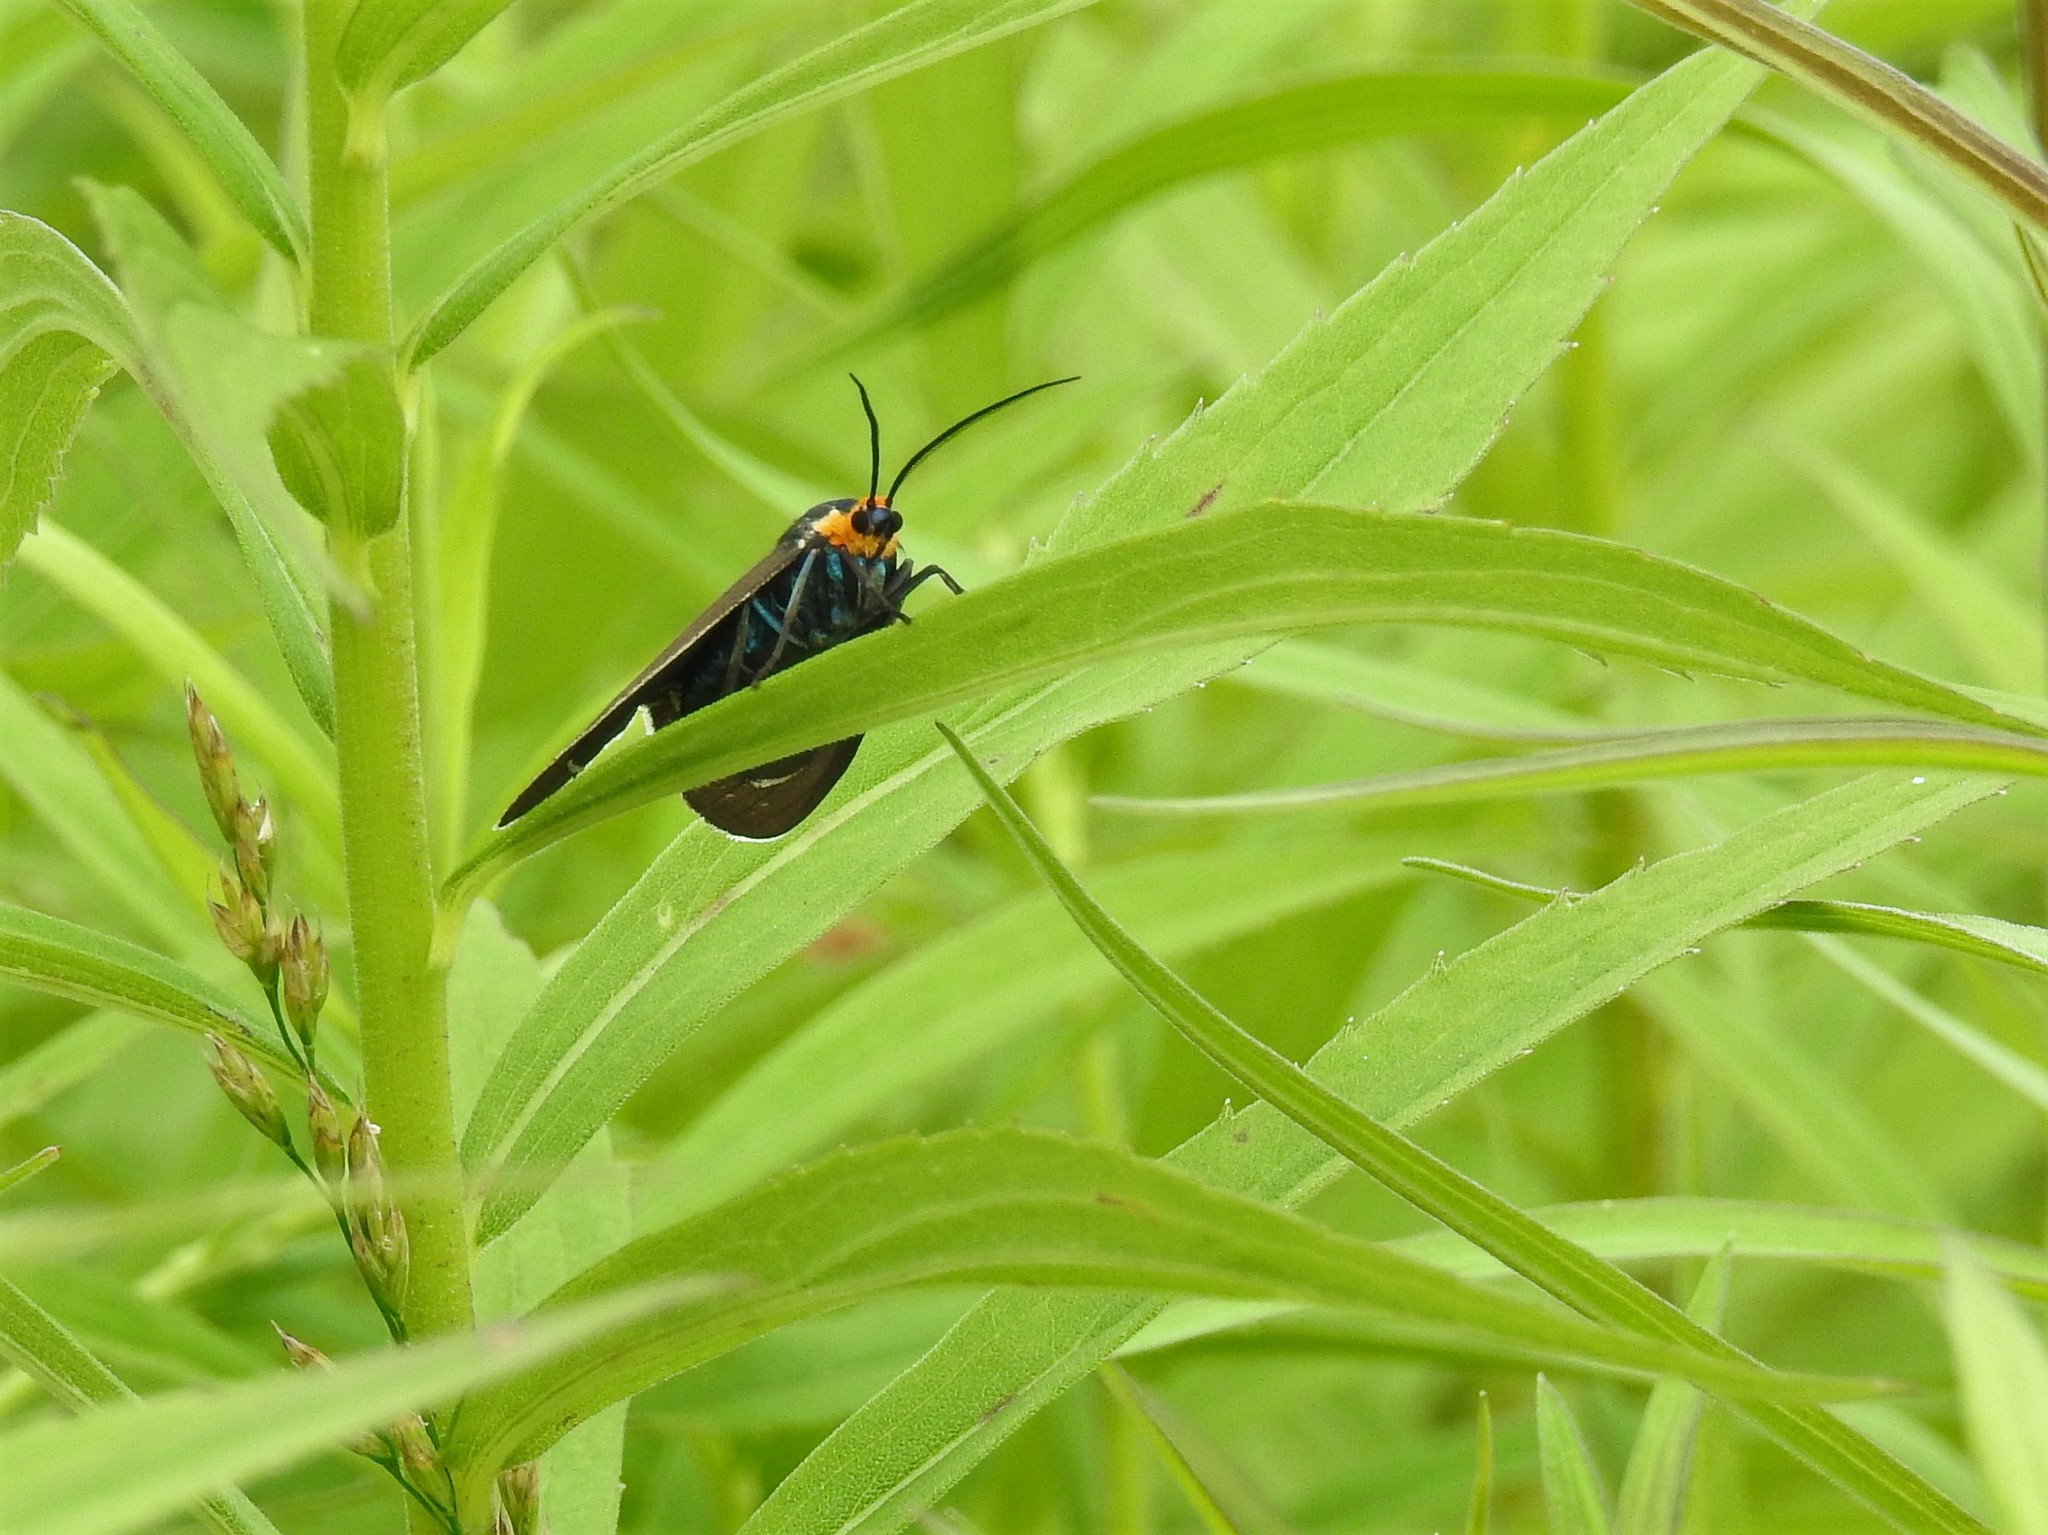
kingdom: Animalia
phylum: Arthropoda
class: Insecta
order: Lepidoptera
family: Erebidae
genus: Ctenucha
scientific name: Ctenucha virginica
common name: Virginia ctenucha moth
